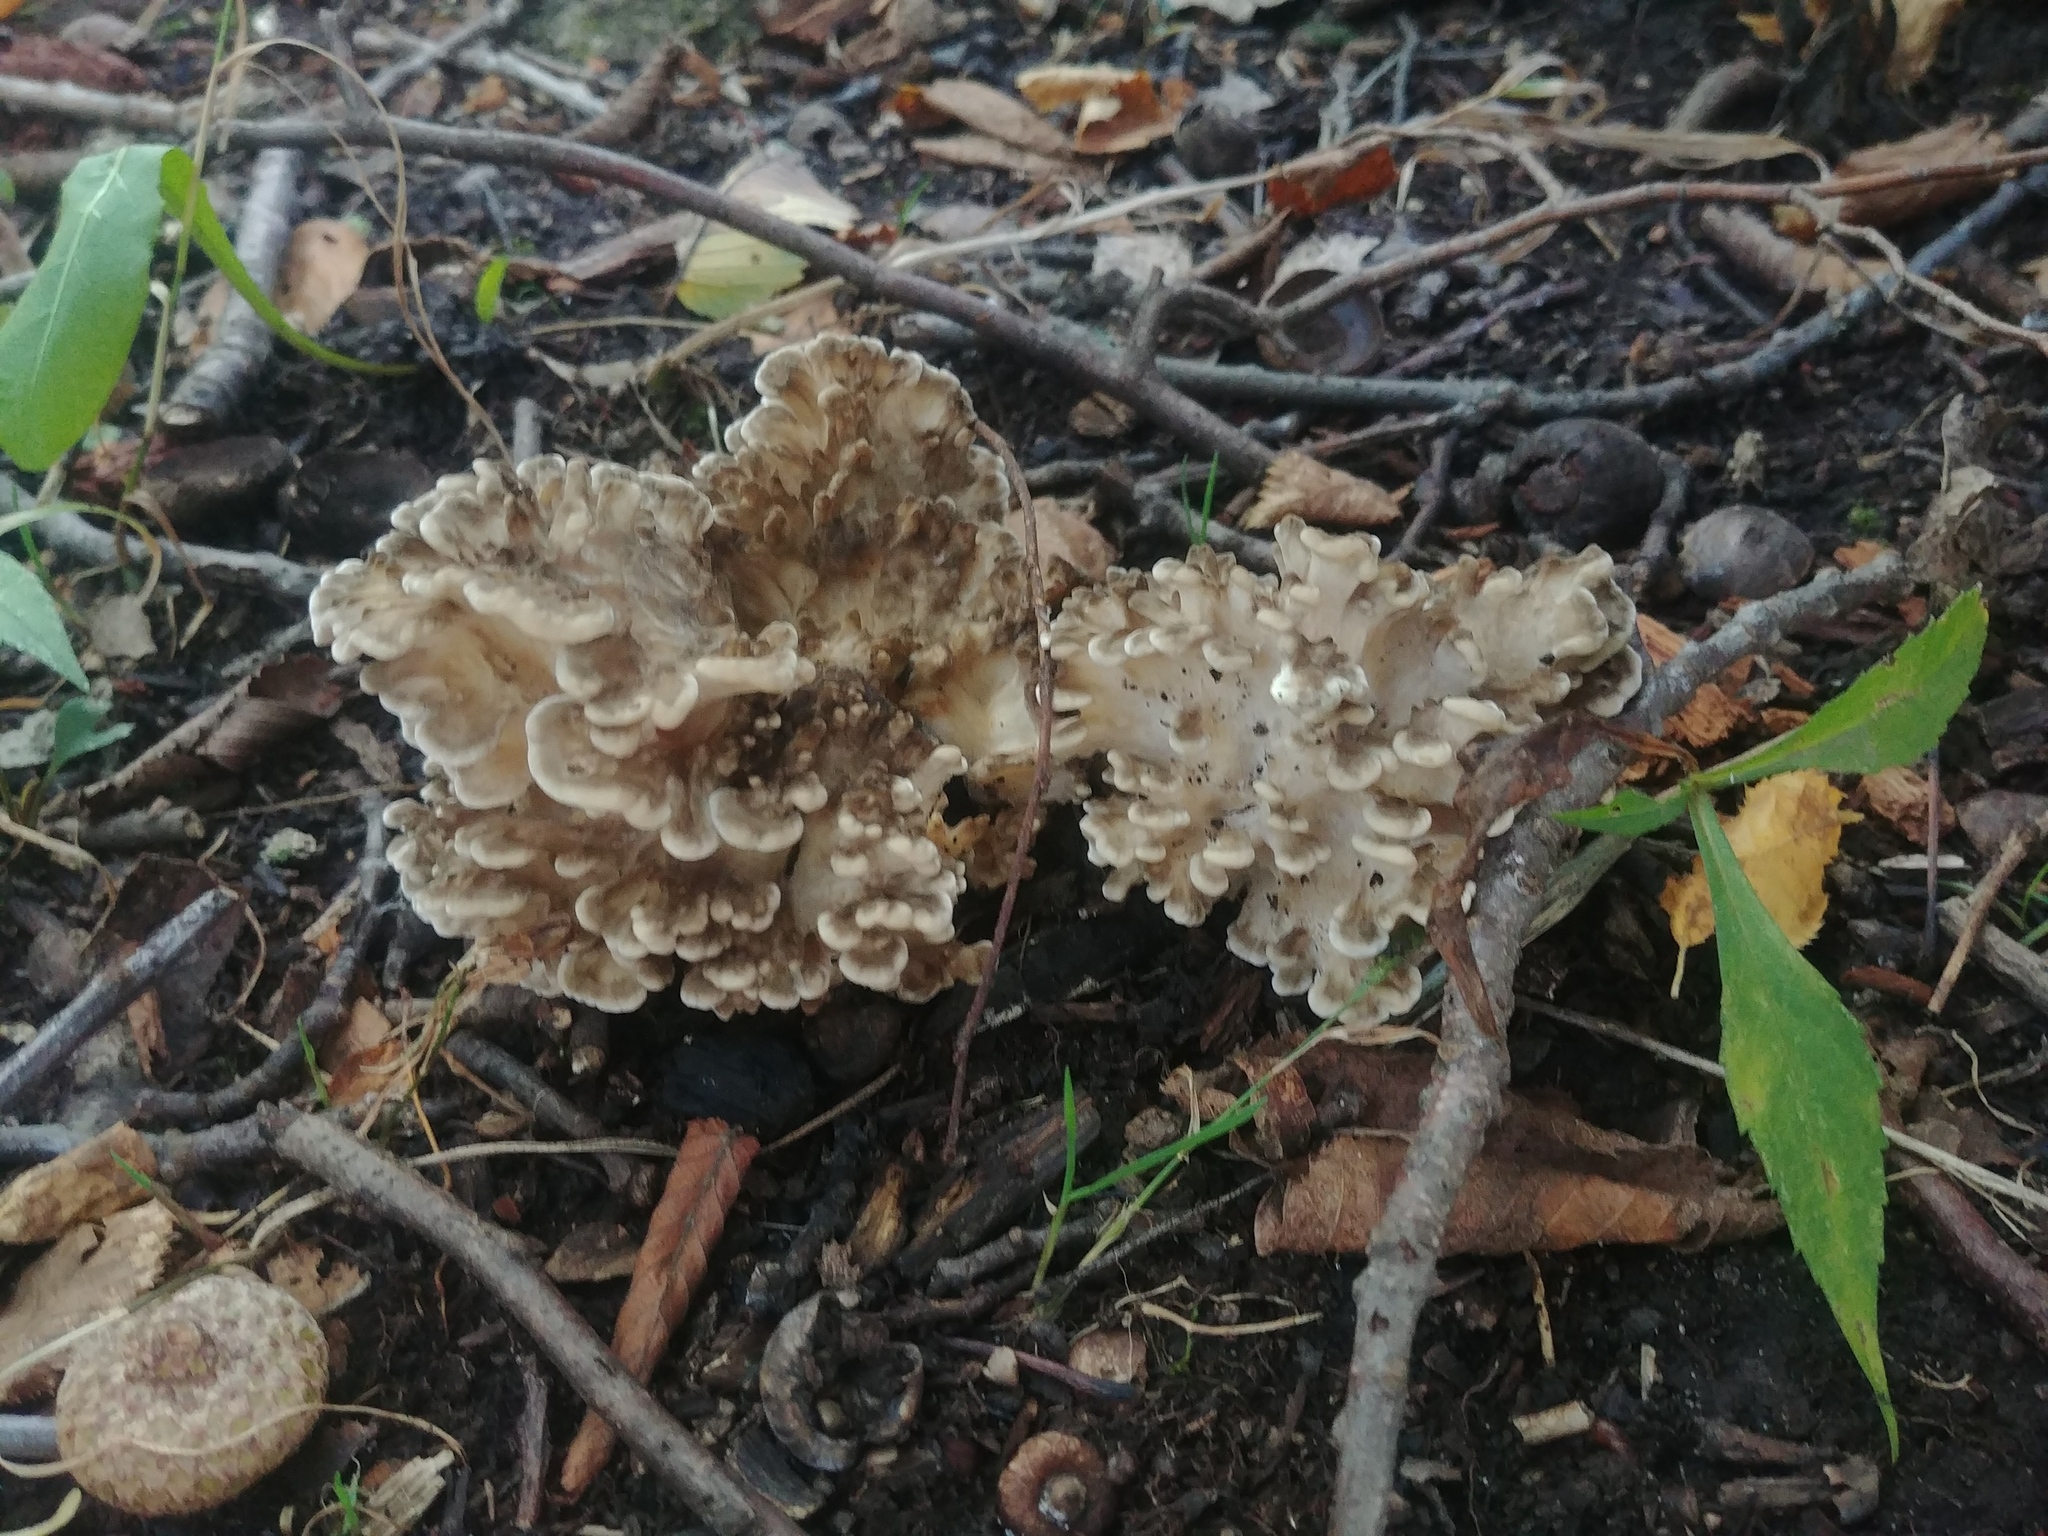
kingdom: Fungi
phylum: Basidiomycota
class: Agaricomycetes
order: Polyporales
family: Grifolaceae
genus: Grifola
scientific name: Grifola frondosa
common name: Hen of the woods
